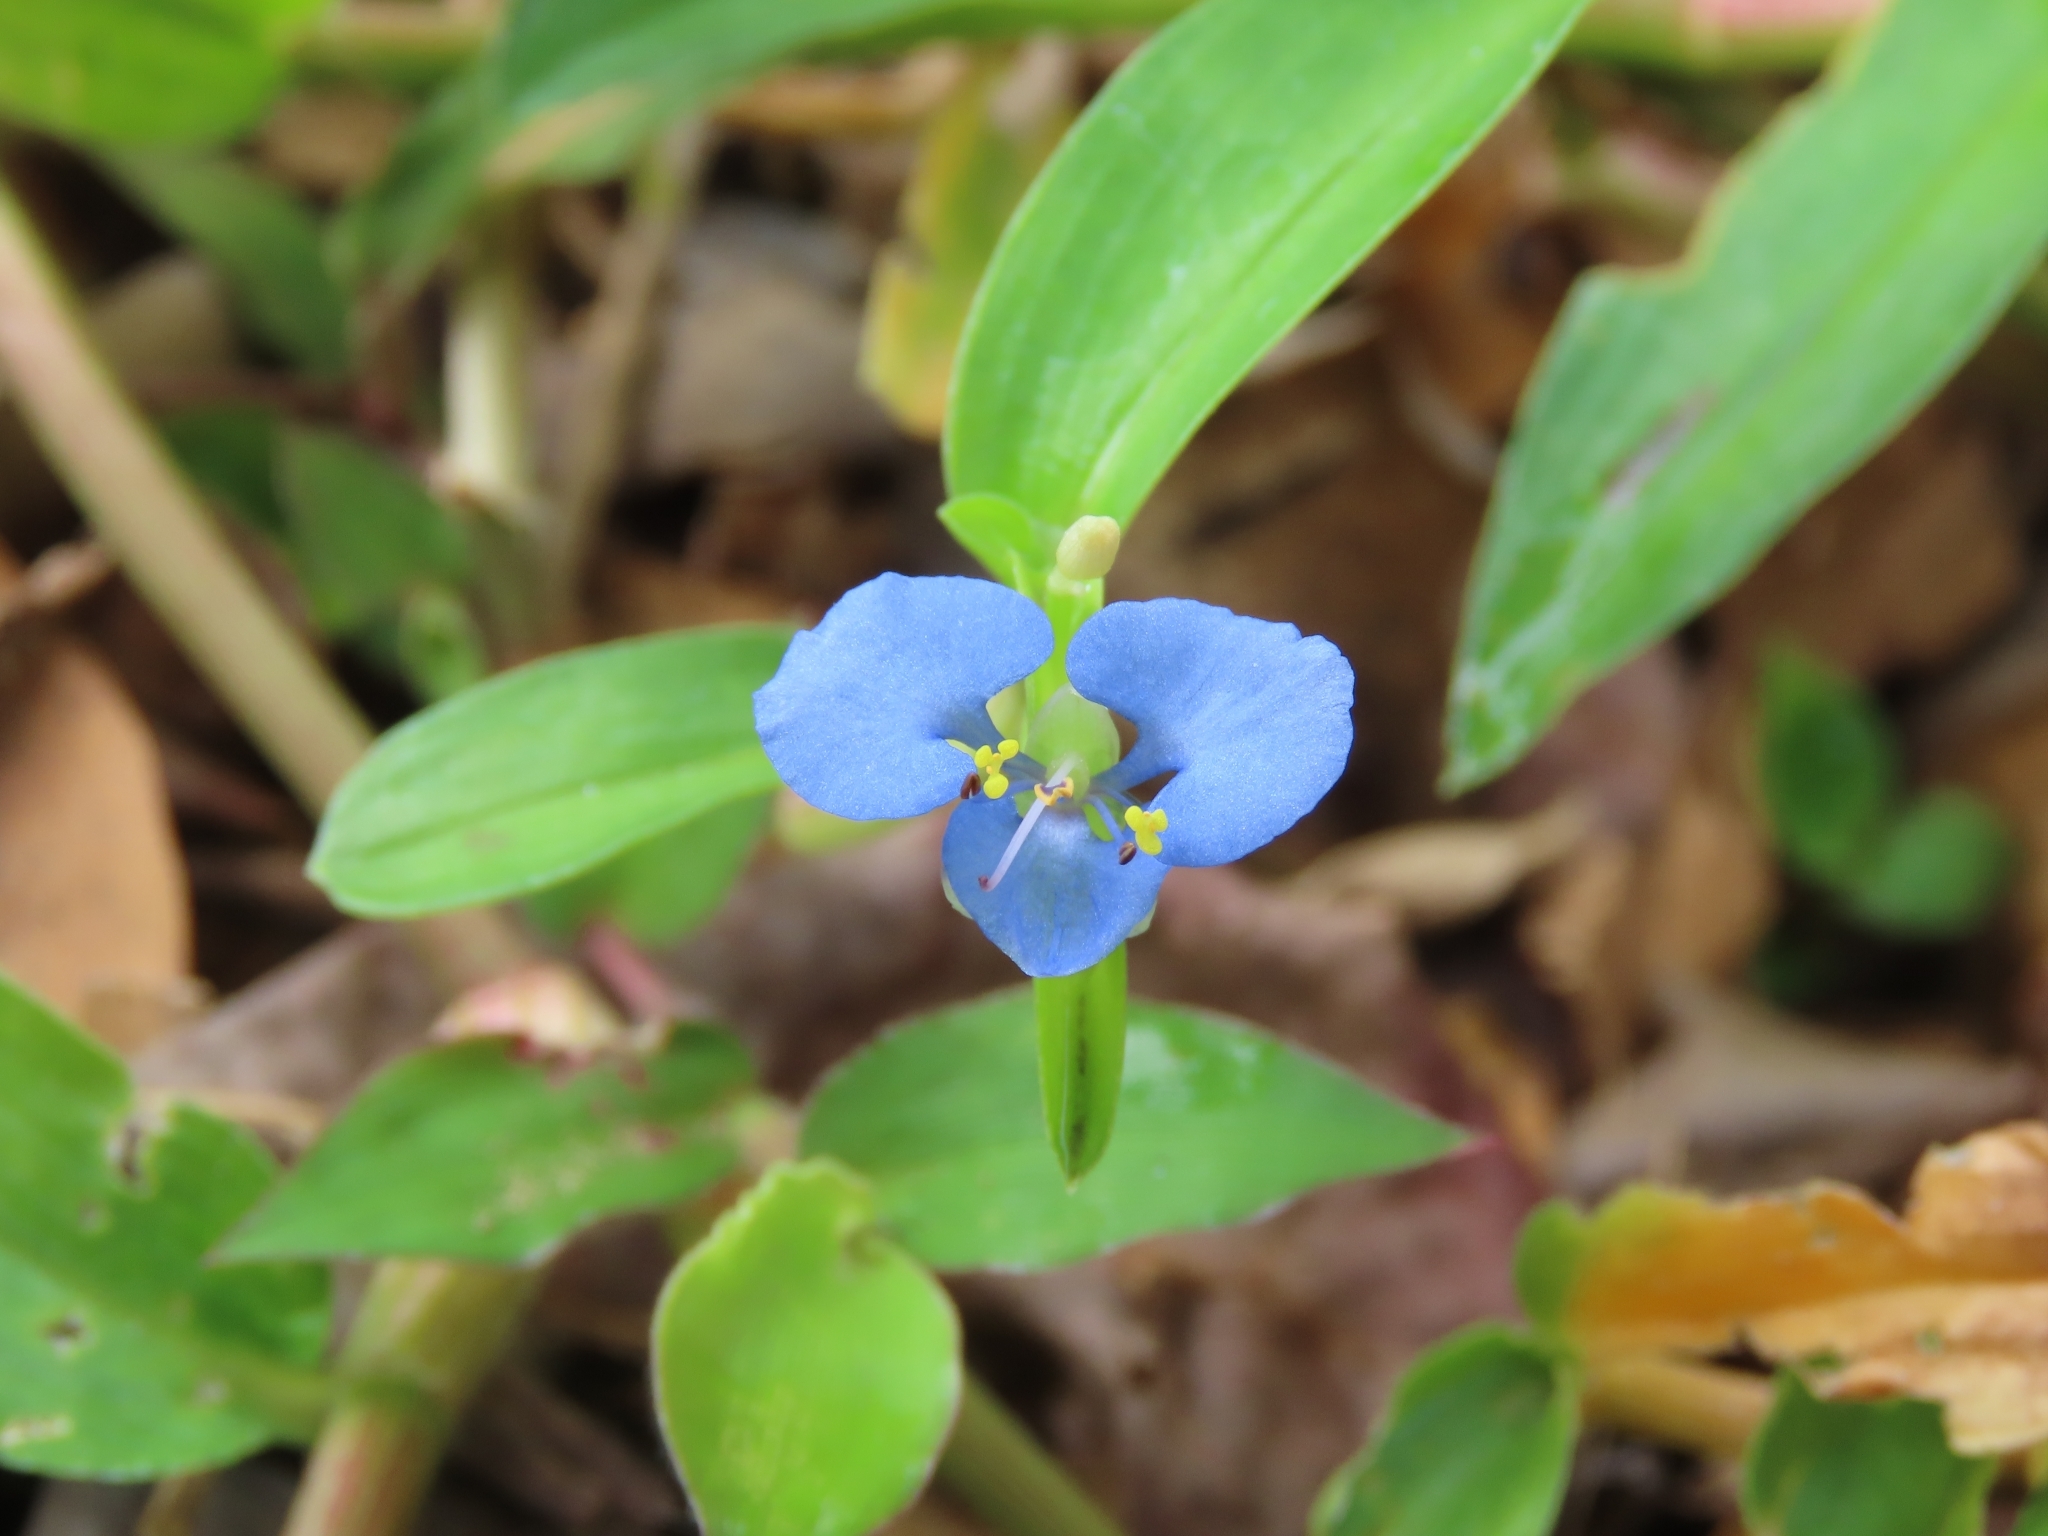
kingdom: Plantae
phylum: Tracheophyta
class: Liliopsida
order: Commelinales
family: Commelinaceae
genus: Commelina
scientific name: Commelina diffusa
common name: Climbing dayflower
